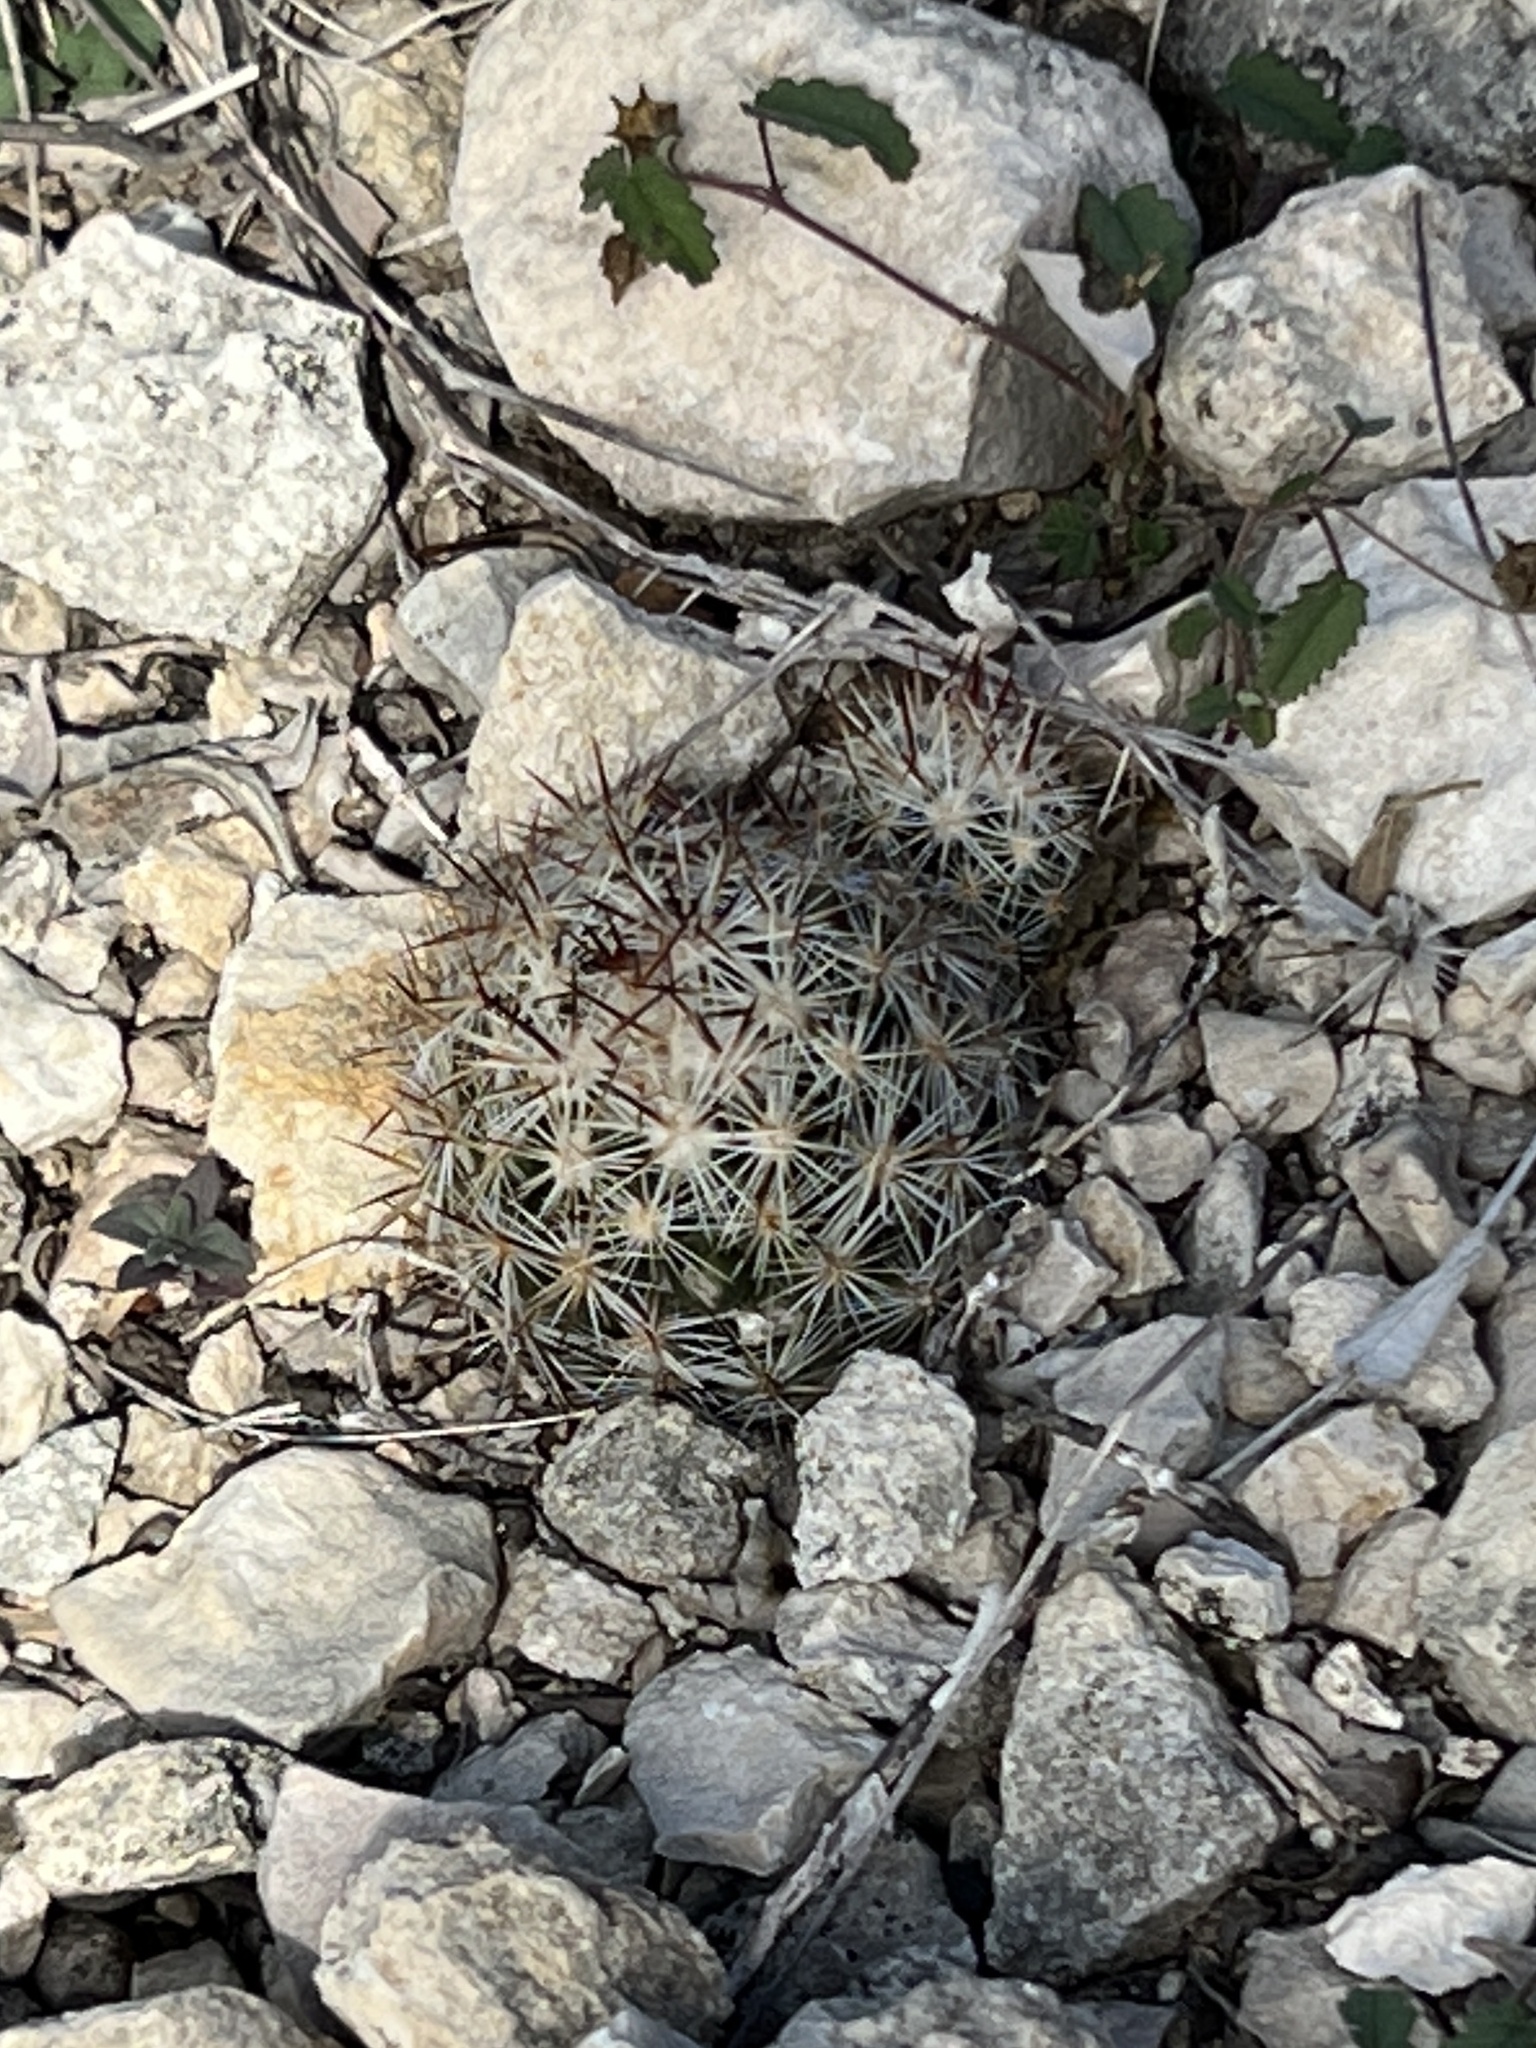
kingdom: Plantae
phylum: Tracheophyta
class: Magnoliopsida
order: Caryophyllales
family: Cactaceae
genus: Pelecyphora
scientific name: Pelecyphora emskoetteriana
